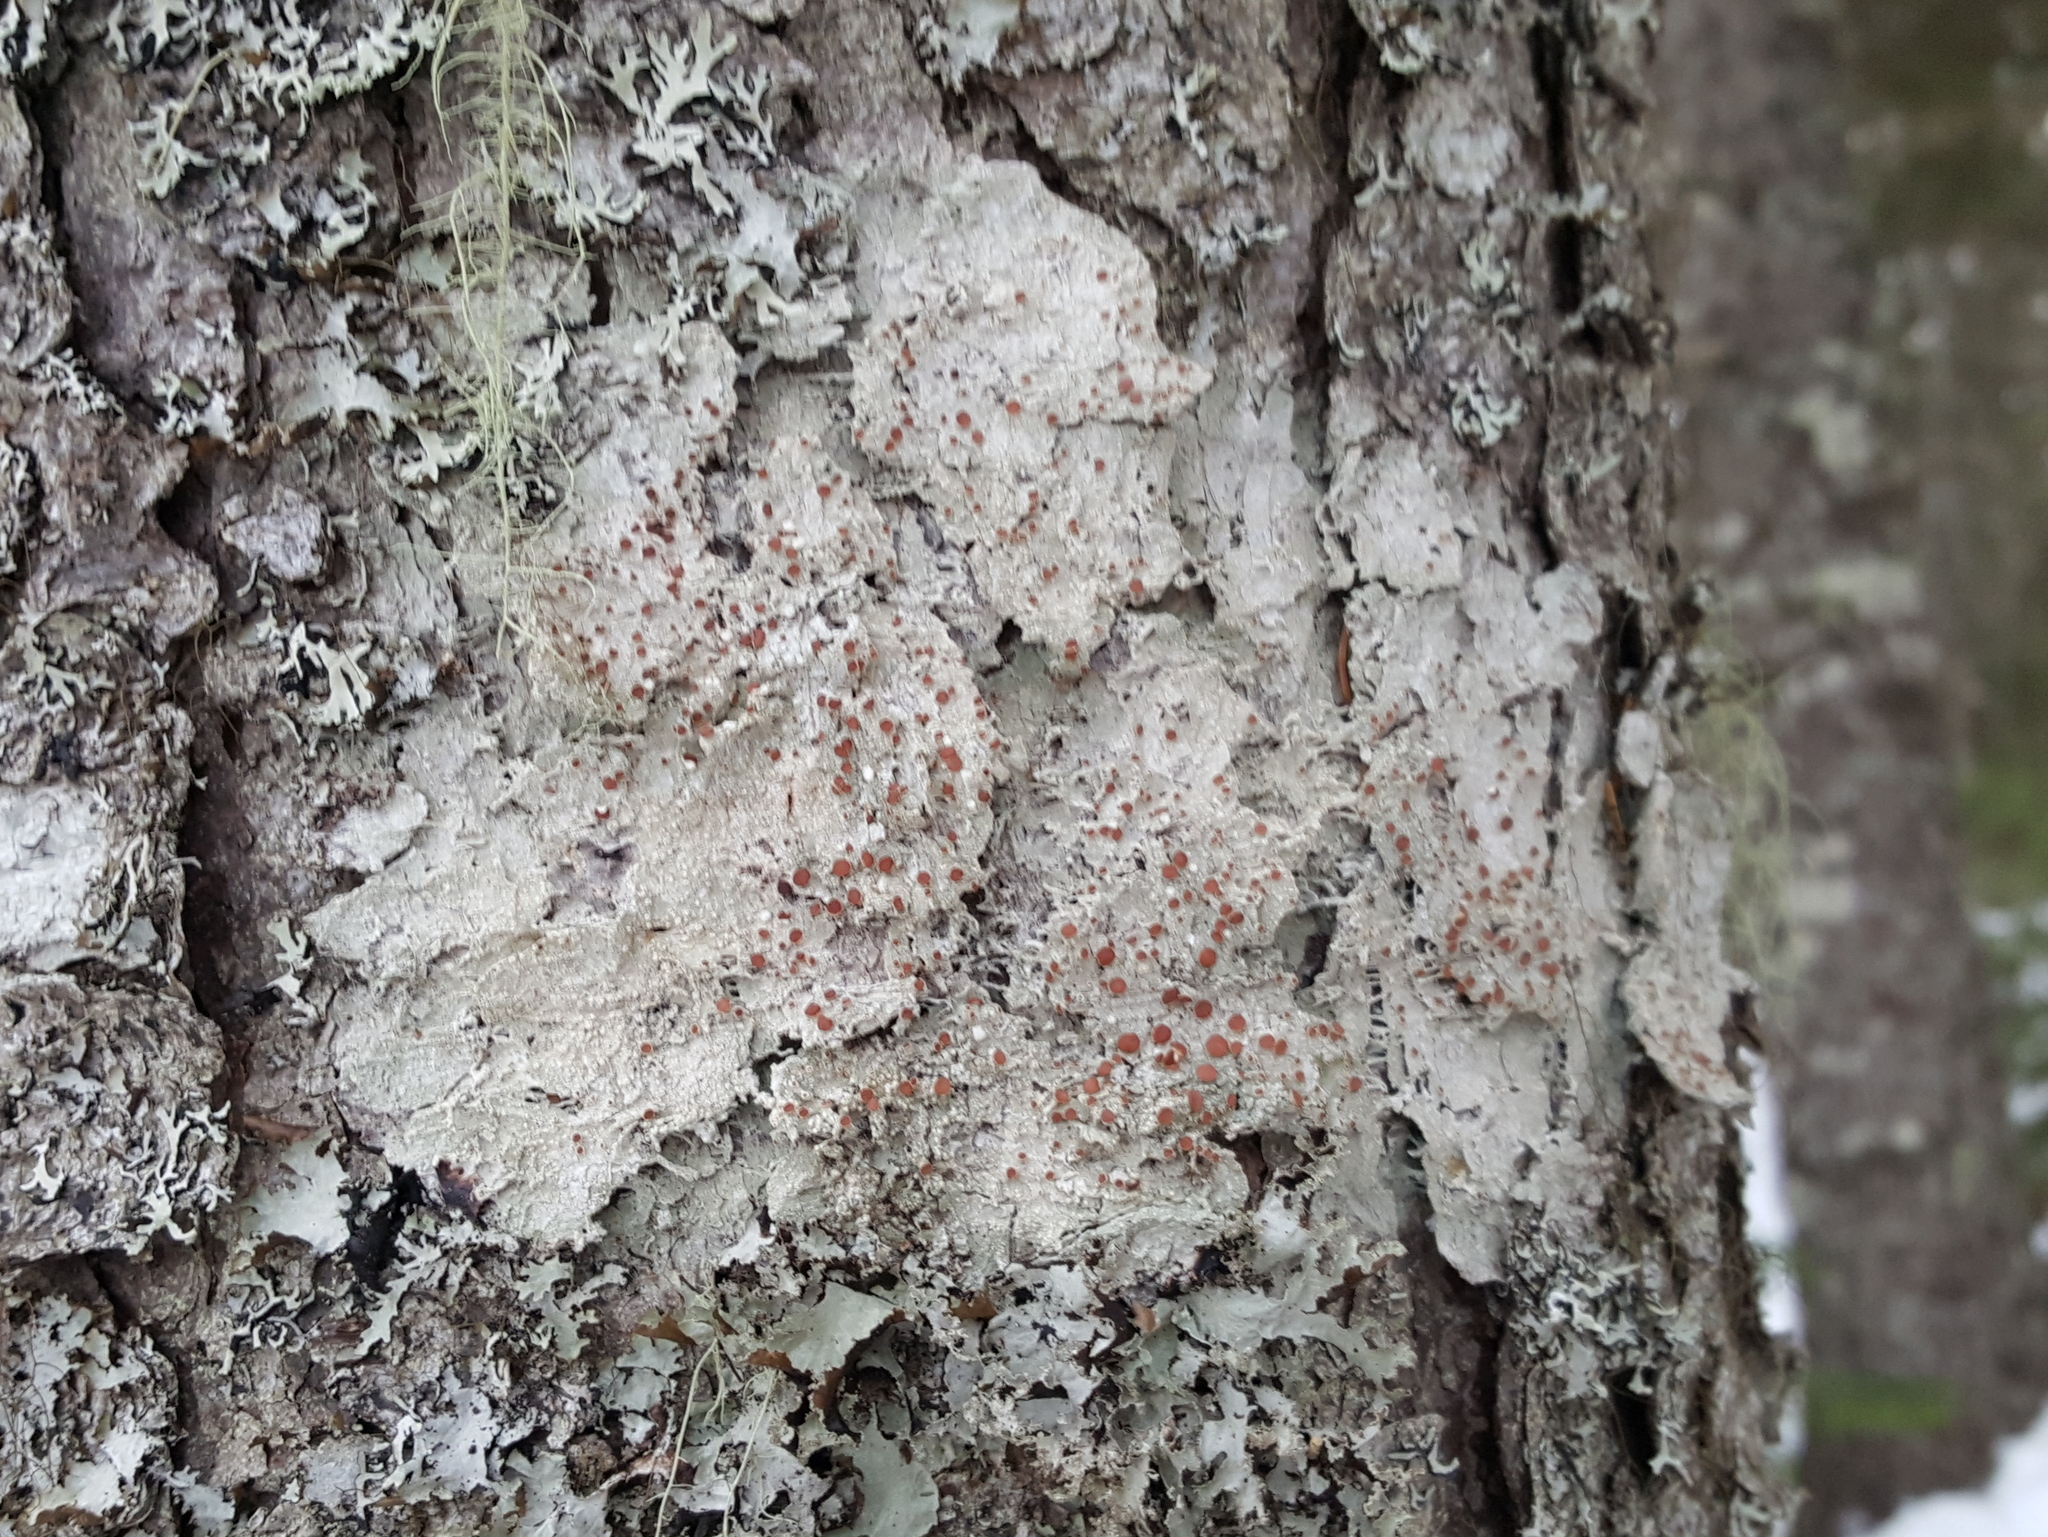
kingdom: Fungi
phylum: Ascomycota
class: Lecanoromycetes
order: Lecanorales
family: Sarrameanaceae
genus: Loxospora
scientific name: Loxospora ochrophaea
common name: Eastern ragged-rim lichen
